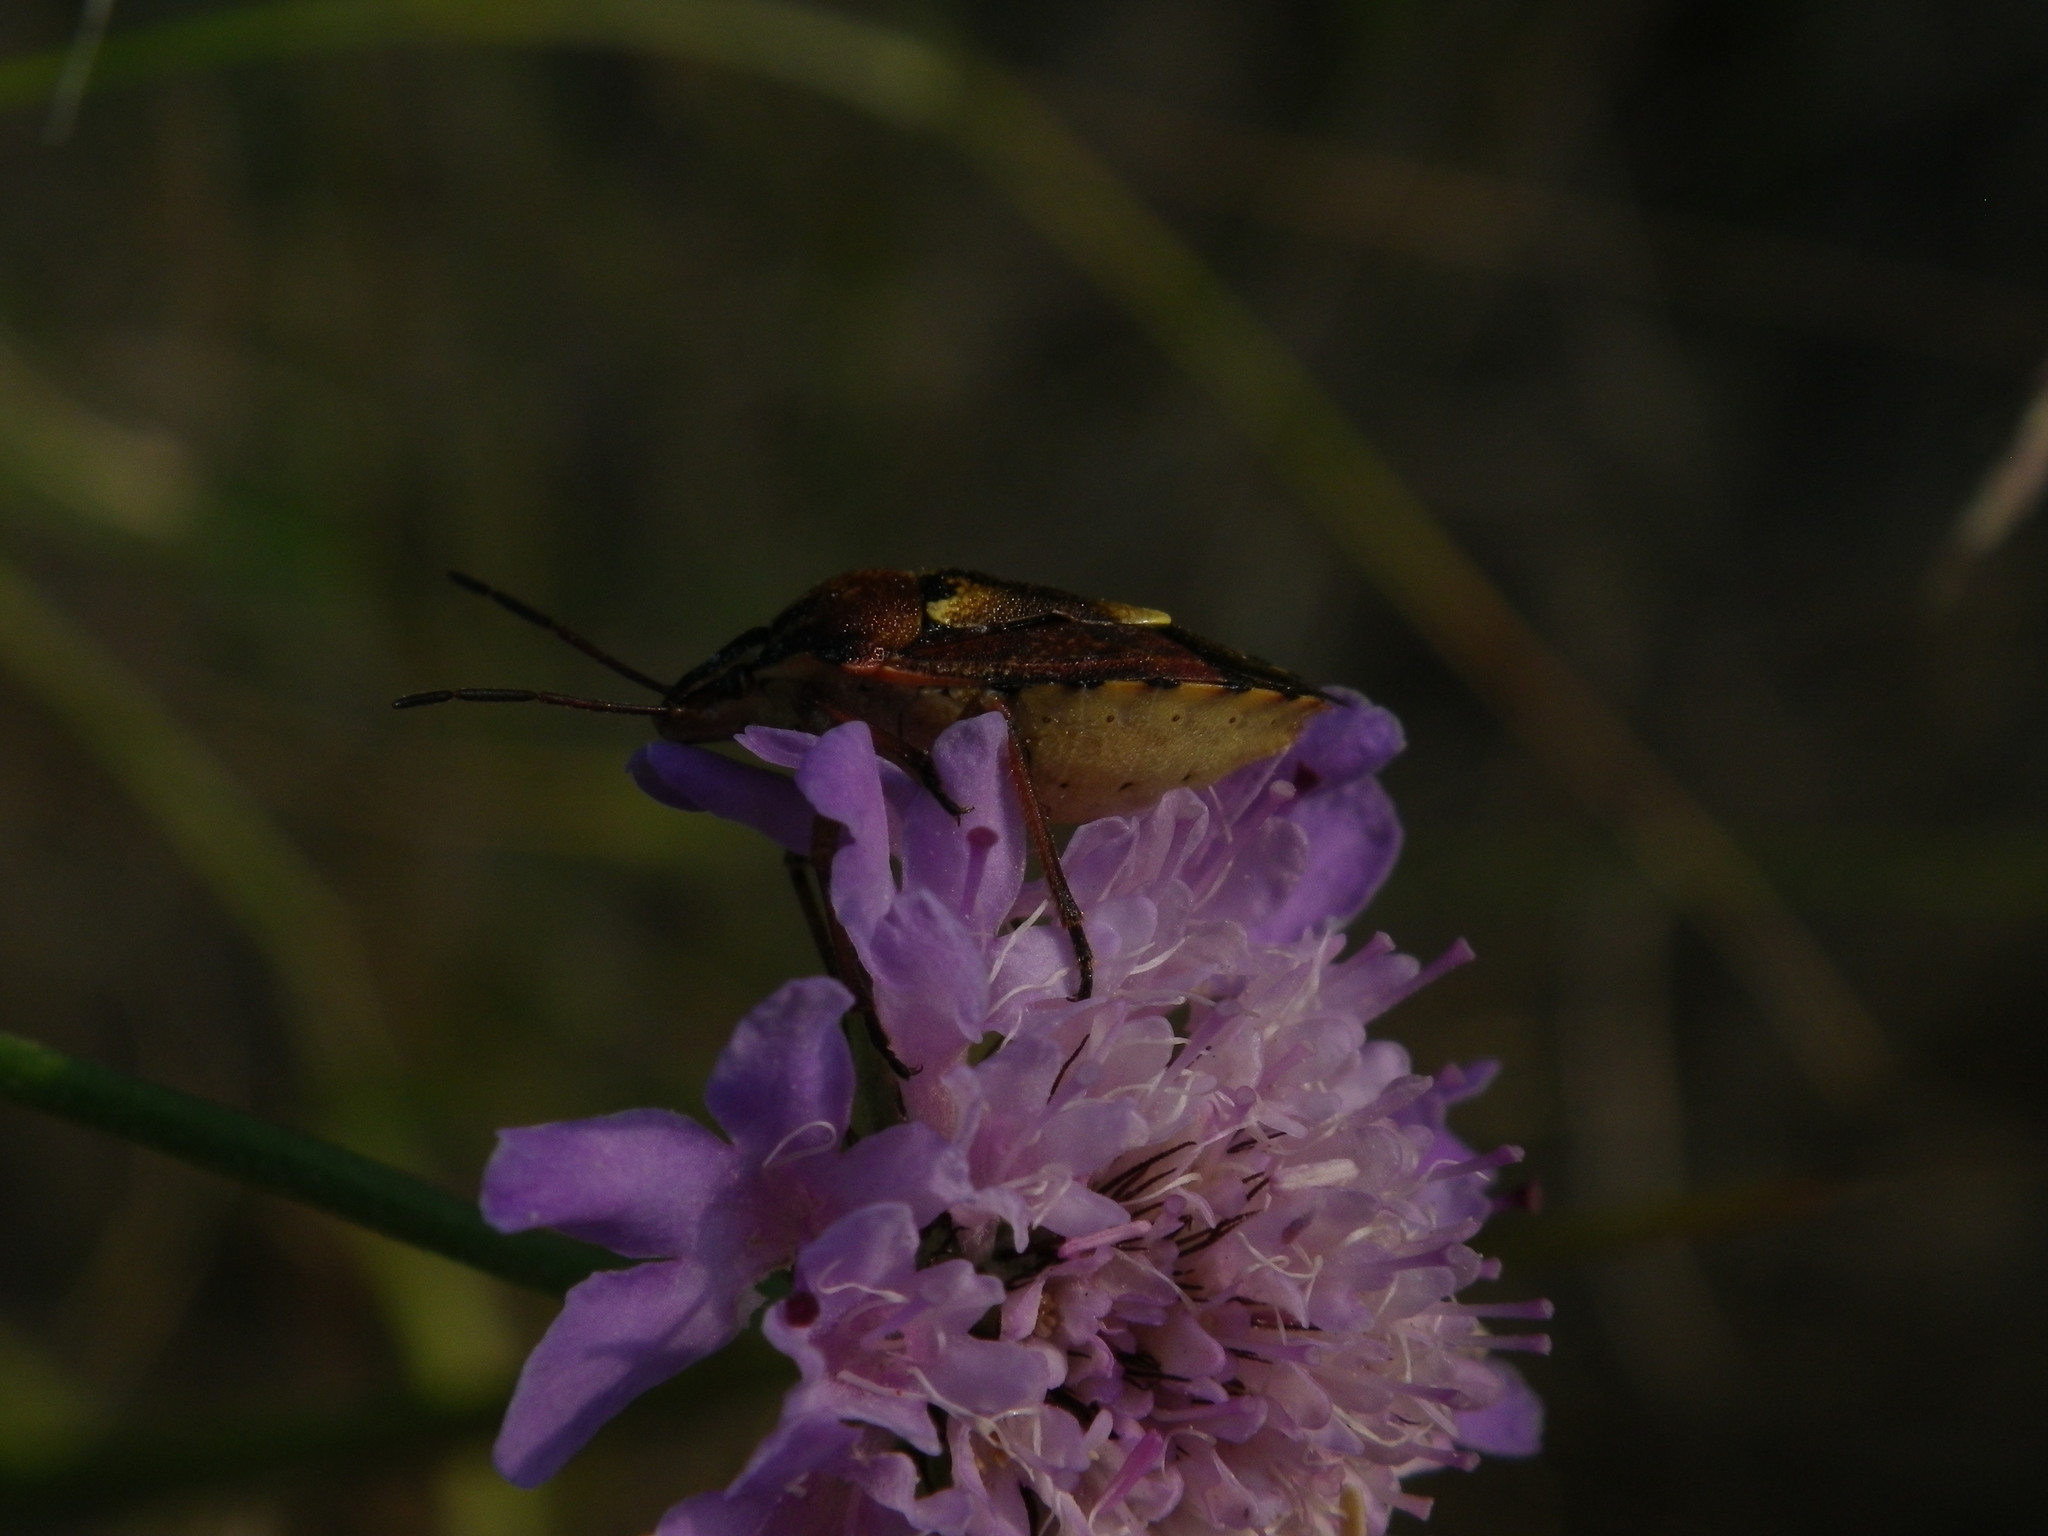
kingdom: Animalia
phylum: Arthropoda
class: Insecta
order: Hemiptera
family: Miridae
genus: Orthops
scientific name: Orthops kalmii
